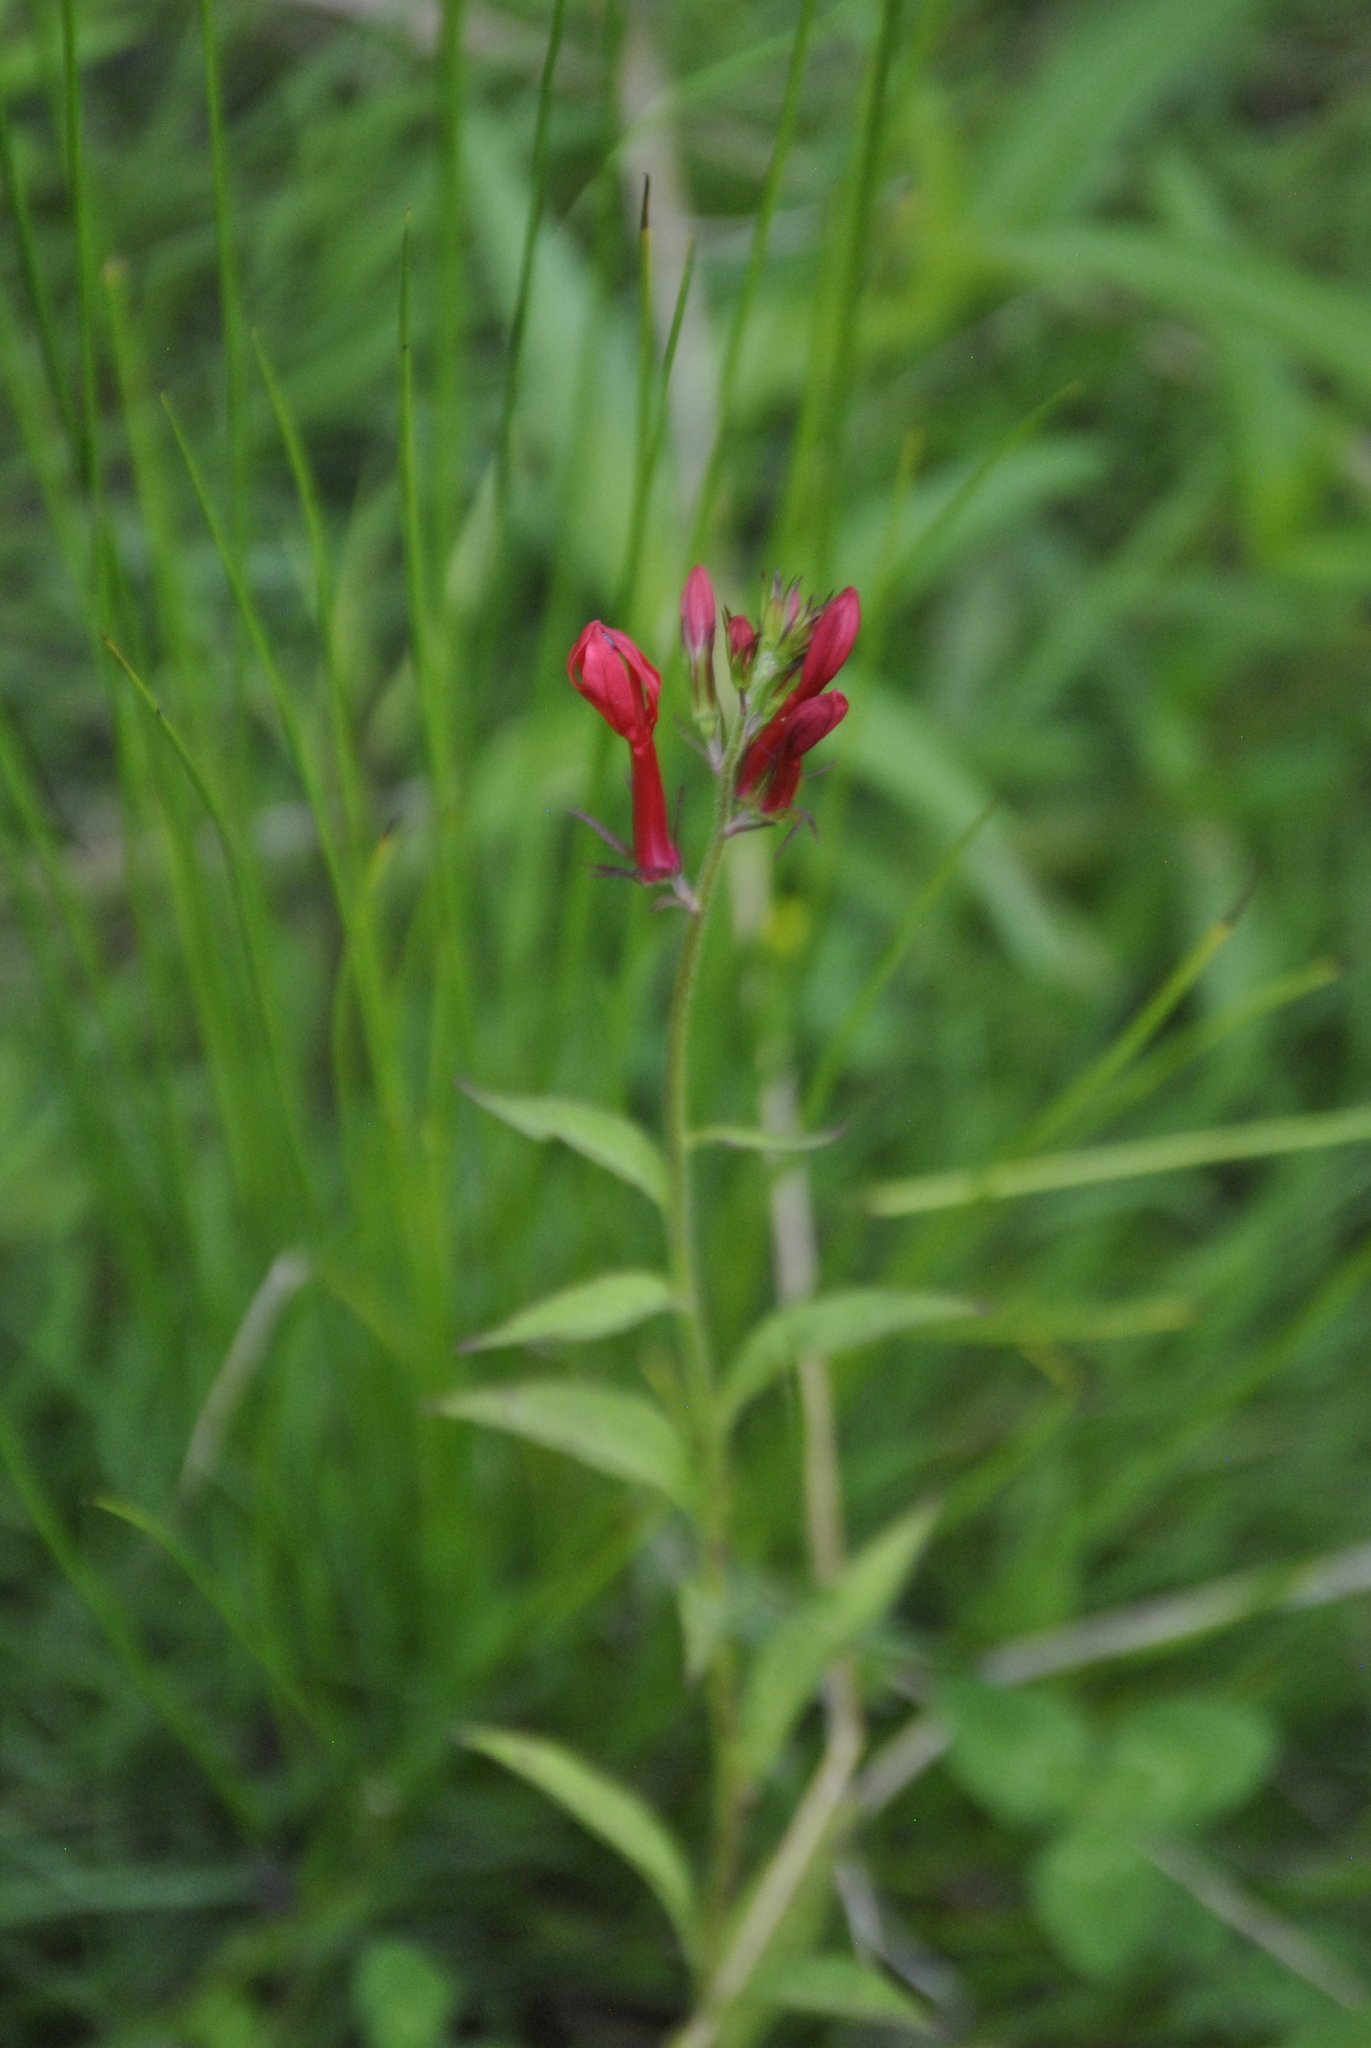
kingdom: Plantae
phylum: Tracheophyta
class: Magnoliopsida
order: Asterales
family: Campanulaceae
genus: Lobelia
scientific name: Lobelia cardinalis
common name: Cardinal flower
